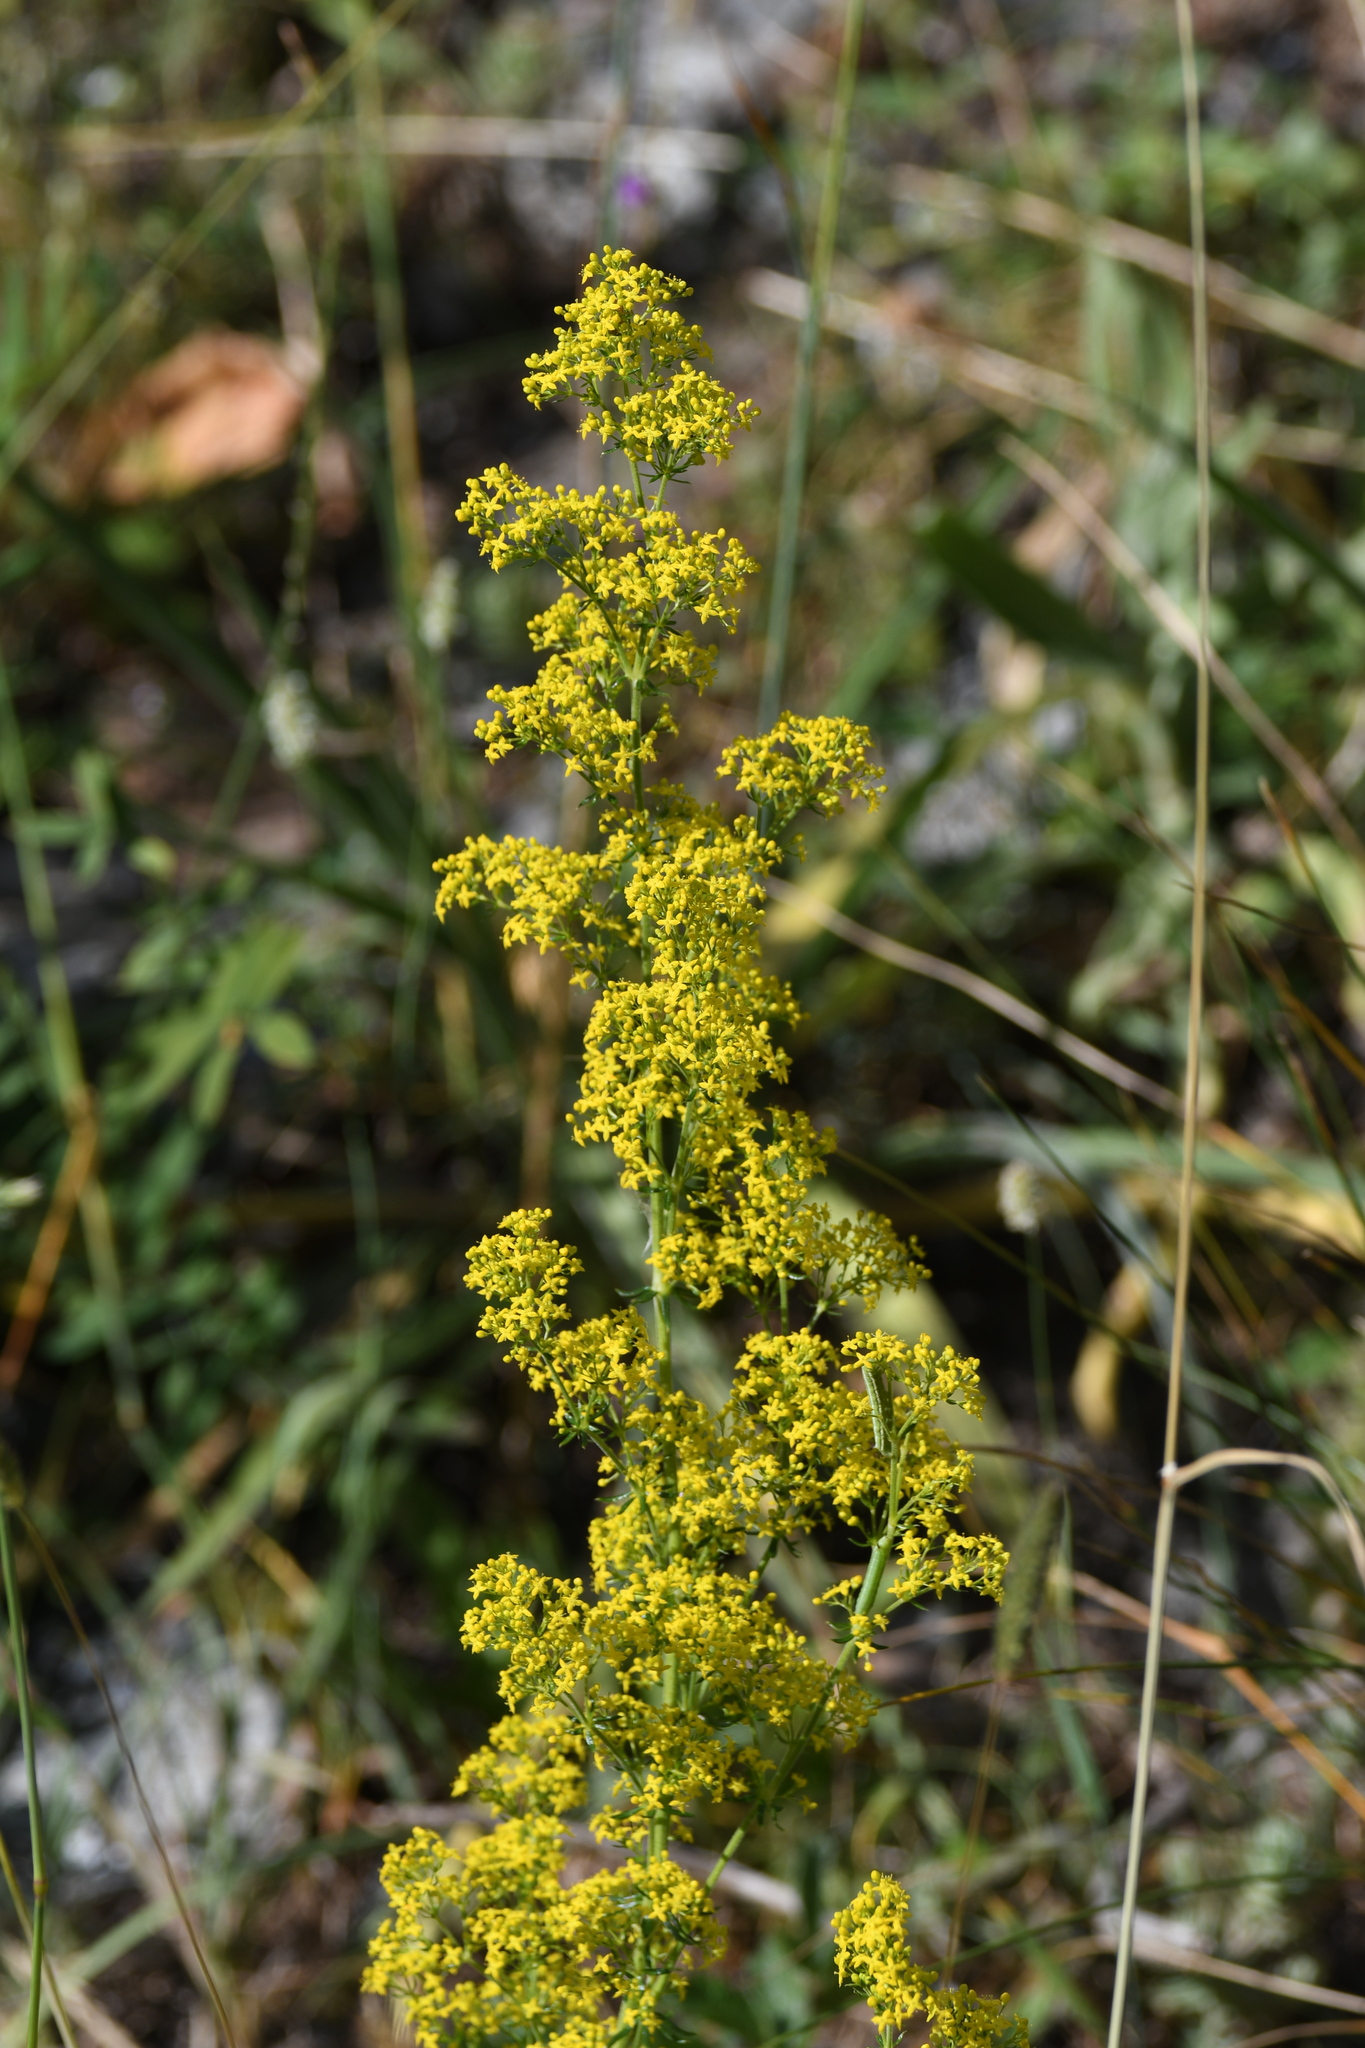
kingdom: Plantae
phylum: Tracheophyta
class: Magnoliopsida
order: Gentianales
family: Rubiaceae
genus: Galium
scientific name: Galium verum
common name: Lady's bedstraw
